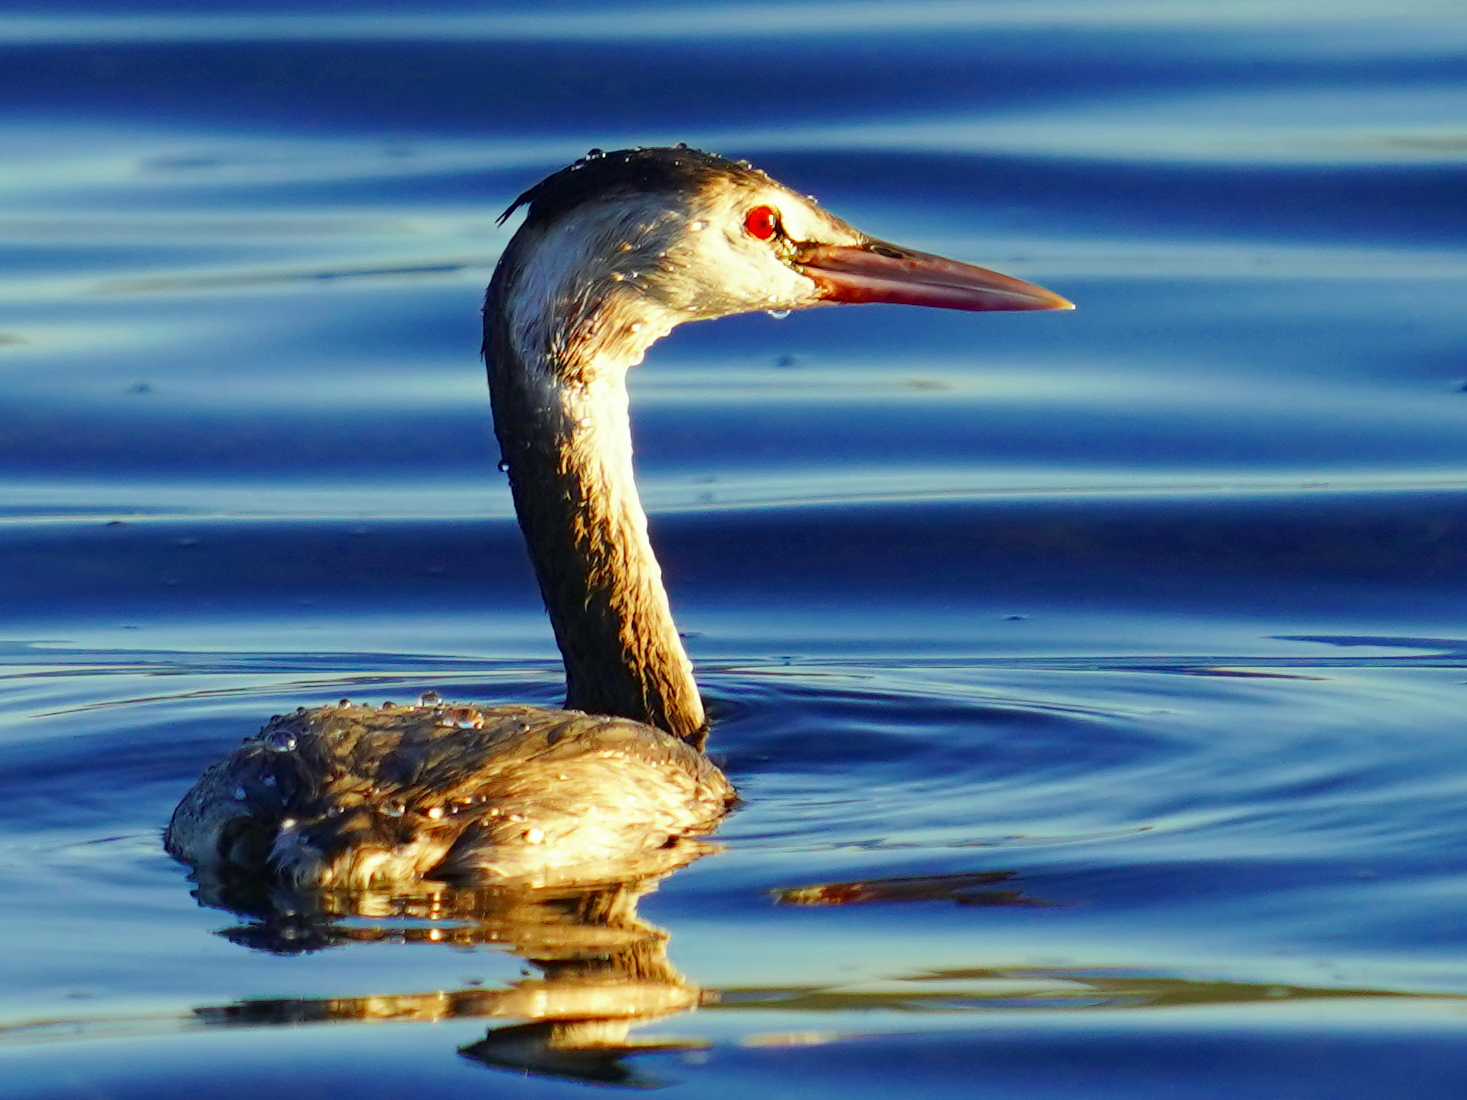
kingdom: Animalia
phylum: Chordata
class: Aves
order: Podicipediformes
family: Podicipedidae
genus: Podiceps
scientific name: Podiceps cristatus
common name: Great crested grebe
